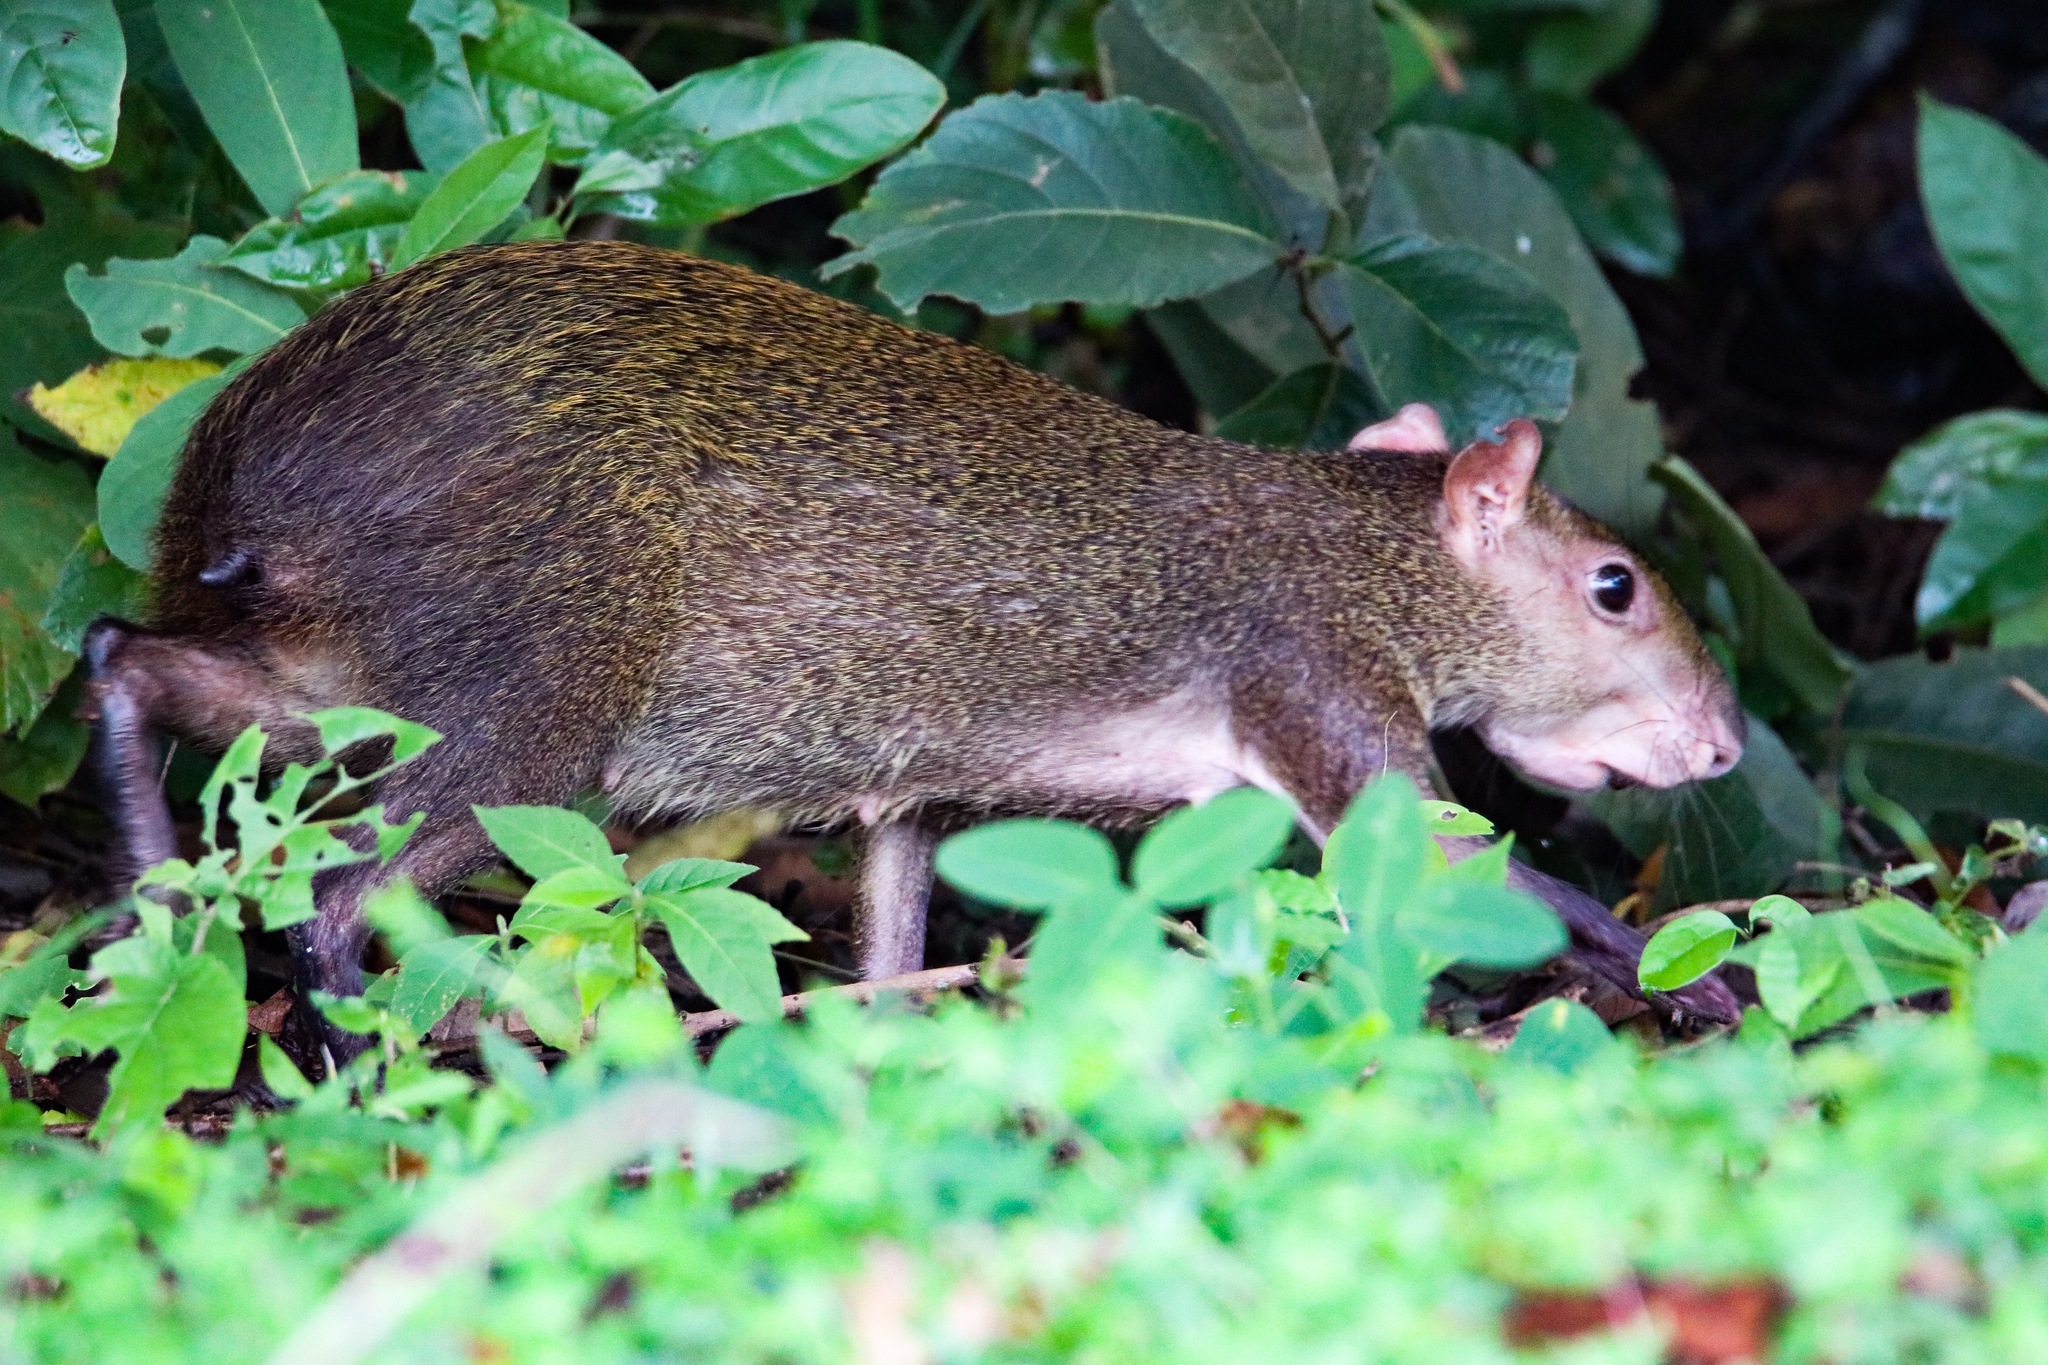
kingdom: Animalia
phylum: Chordata
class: Mammalia
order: Rodentia
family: Dasyproctidae
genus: Dasyprocta
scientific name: Dasyprocta punctata
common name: Central american agouti
